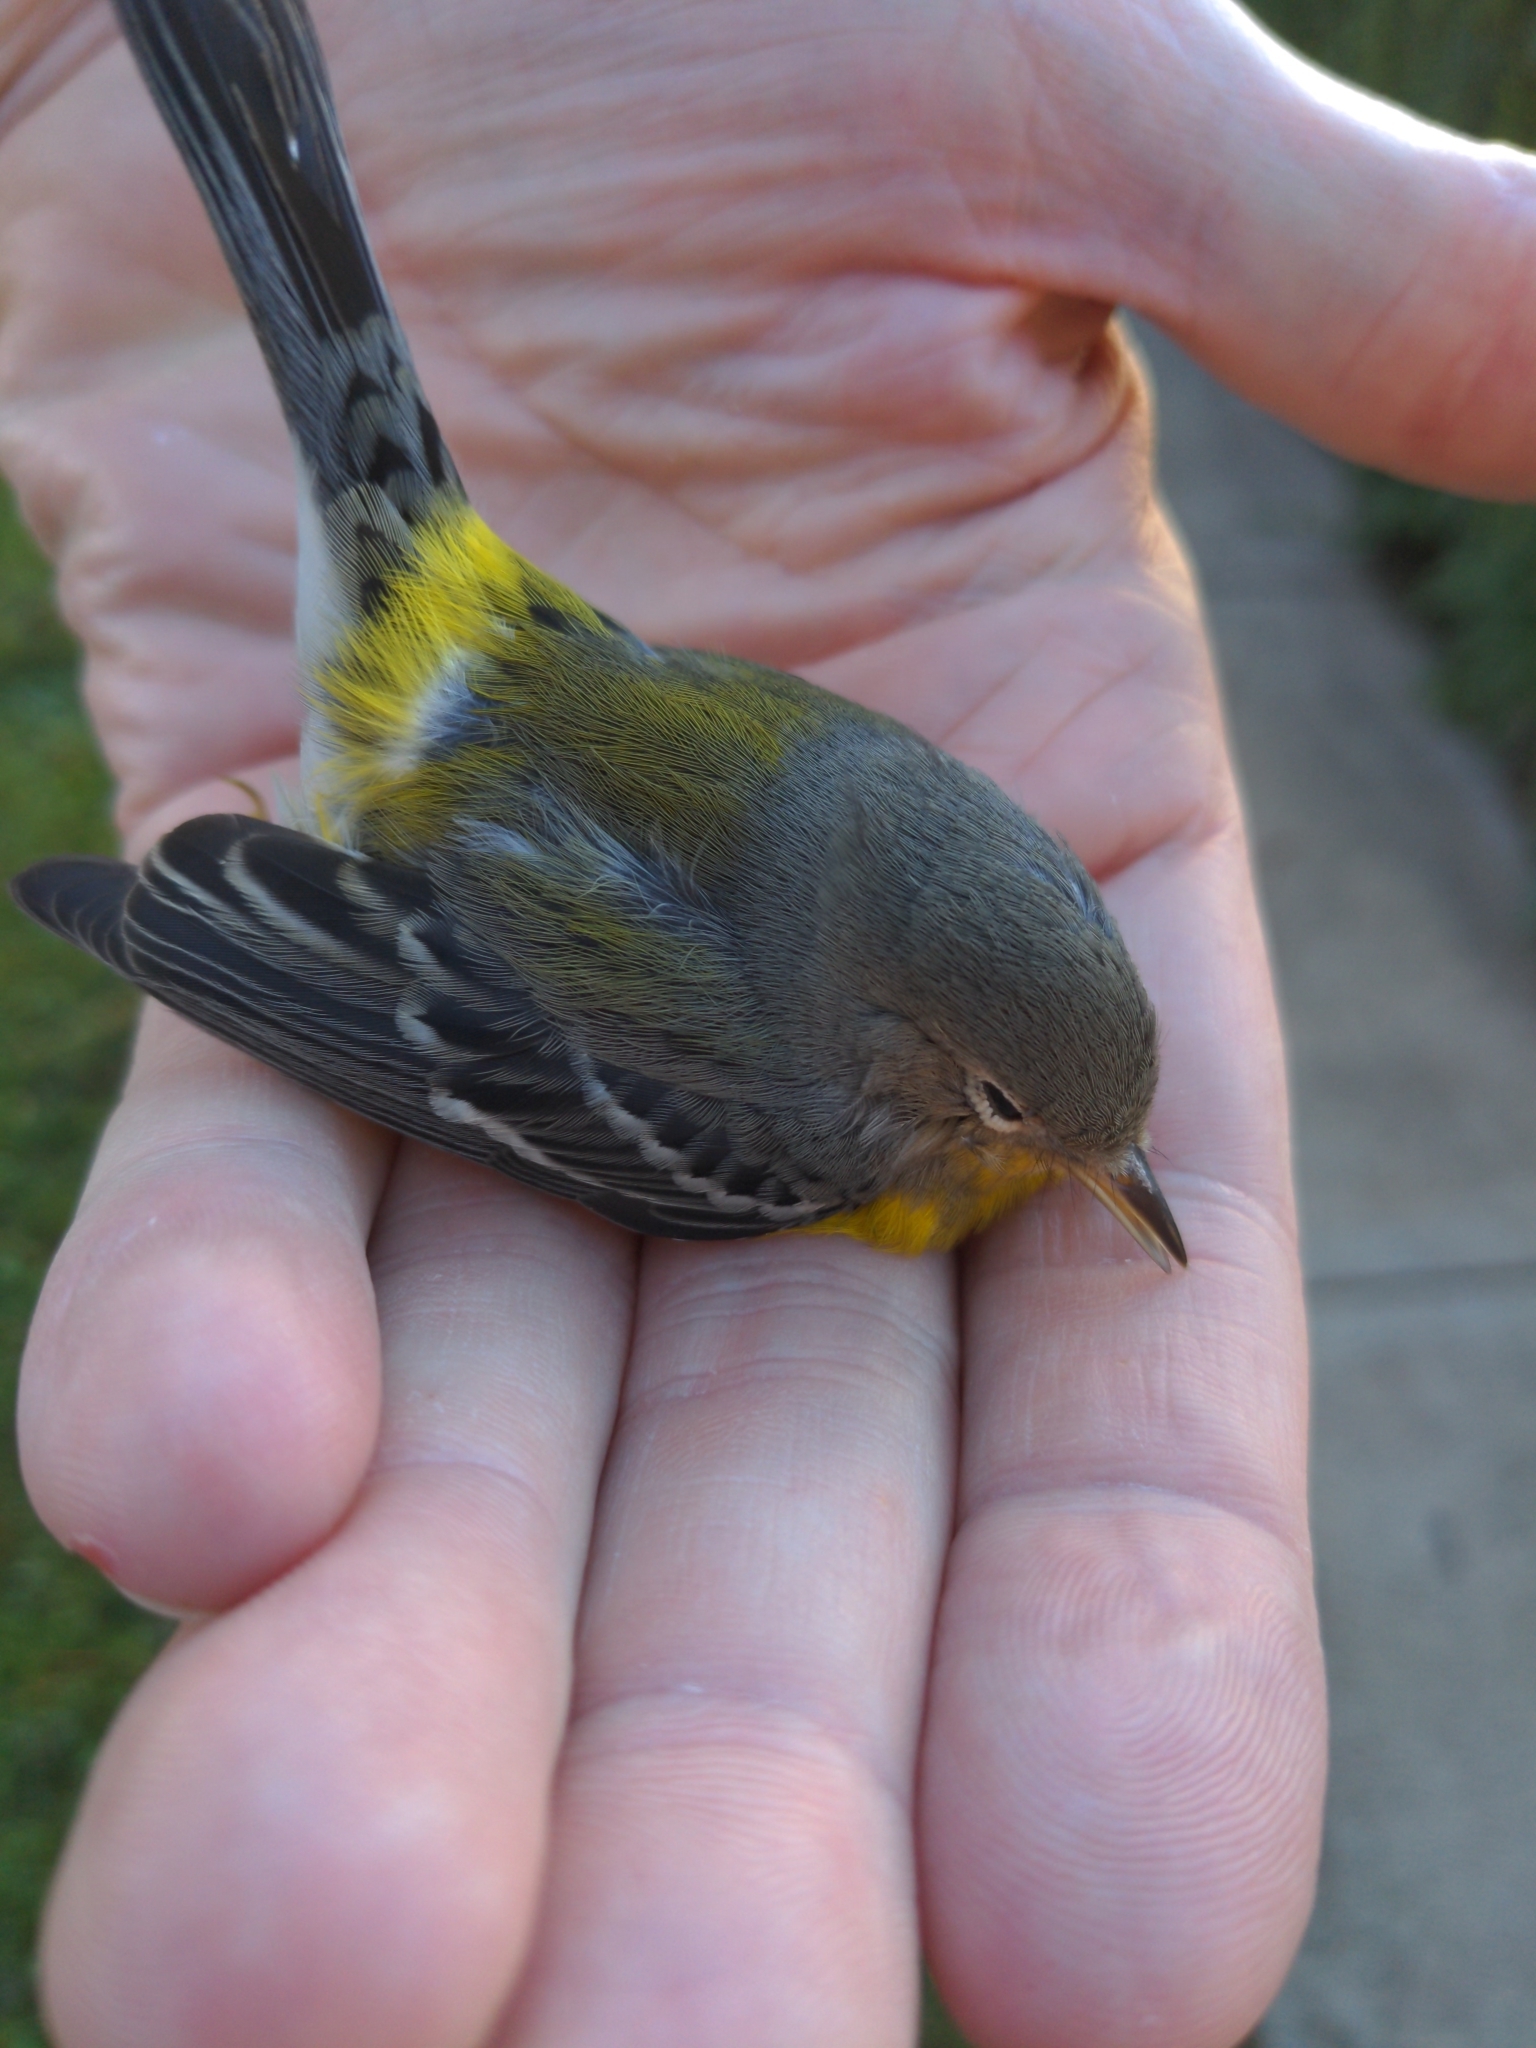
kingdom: Animalia
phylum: Chordata
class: Aves
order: Passeriformes
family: Parulidae
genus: Setophaga
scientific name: Setophaga magnolia
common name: Magnolia warbler
